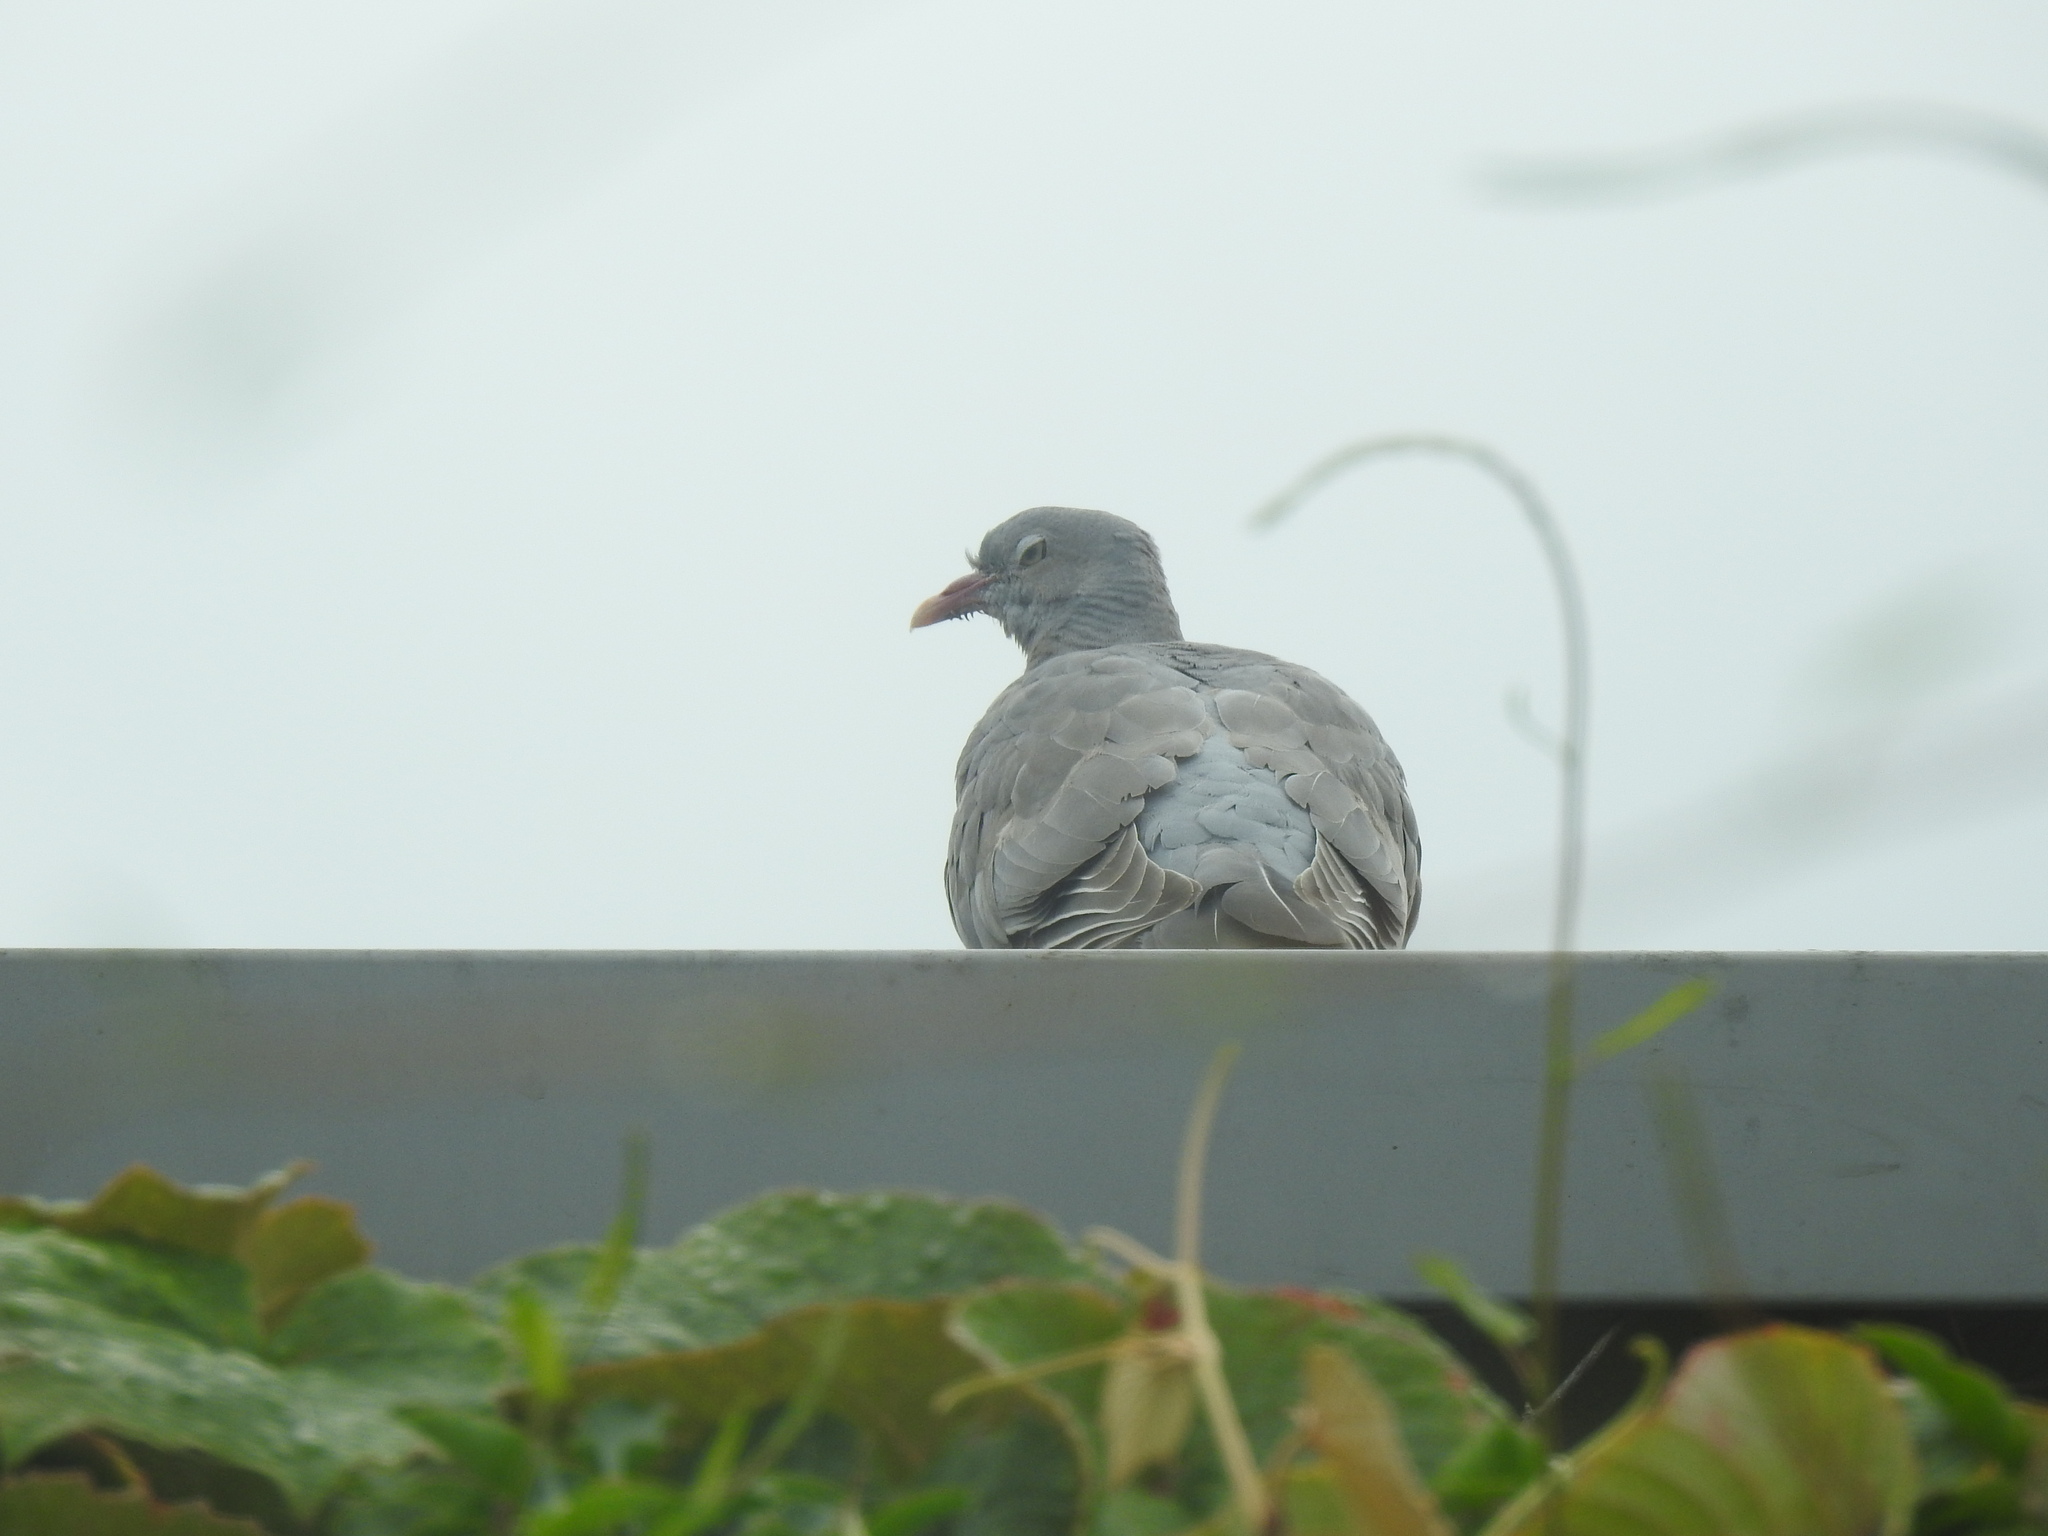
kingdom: Animalia
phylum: Chordata
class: Aves
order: Columbiformes
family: Columbidae
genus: Columba
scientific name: Columba palumbus
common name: Common wood pigeon
